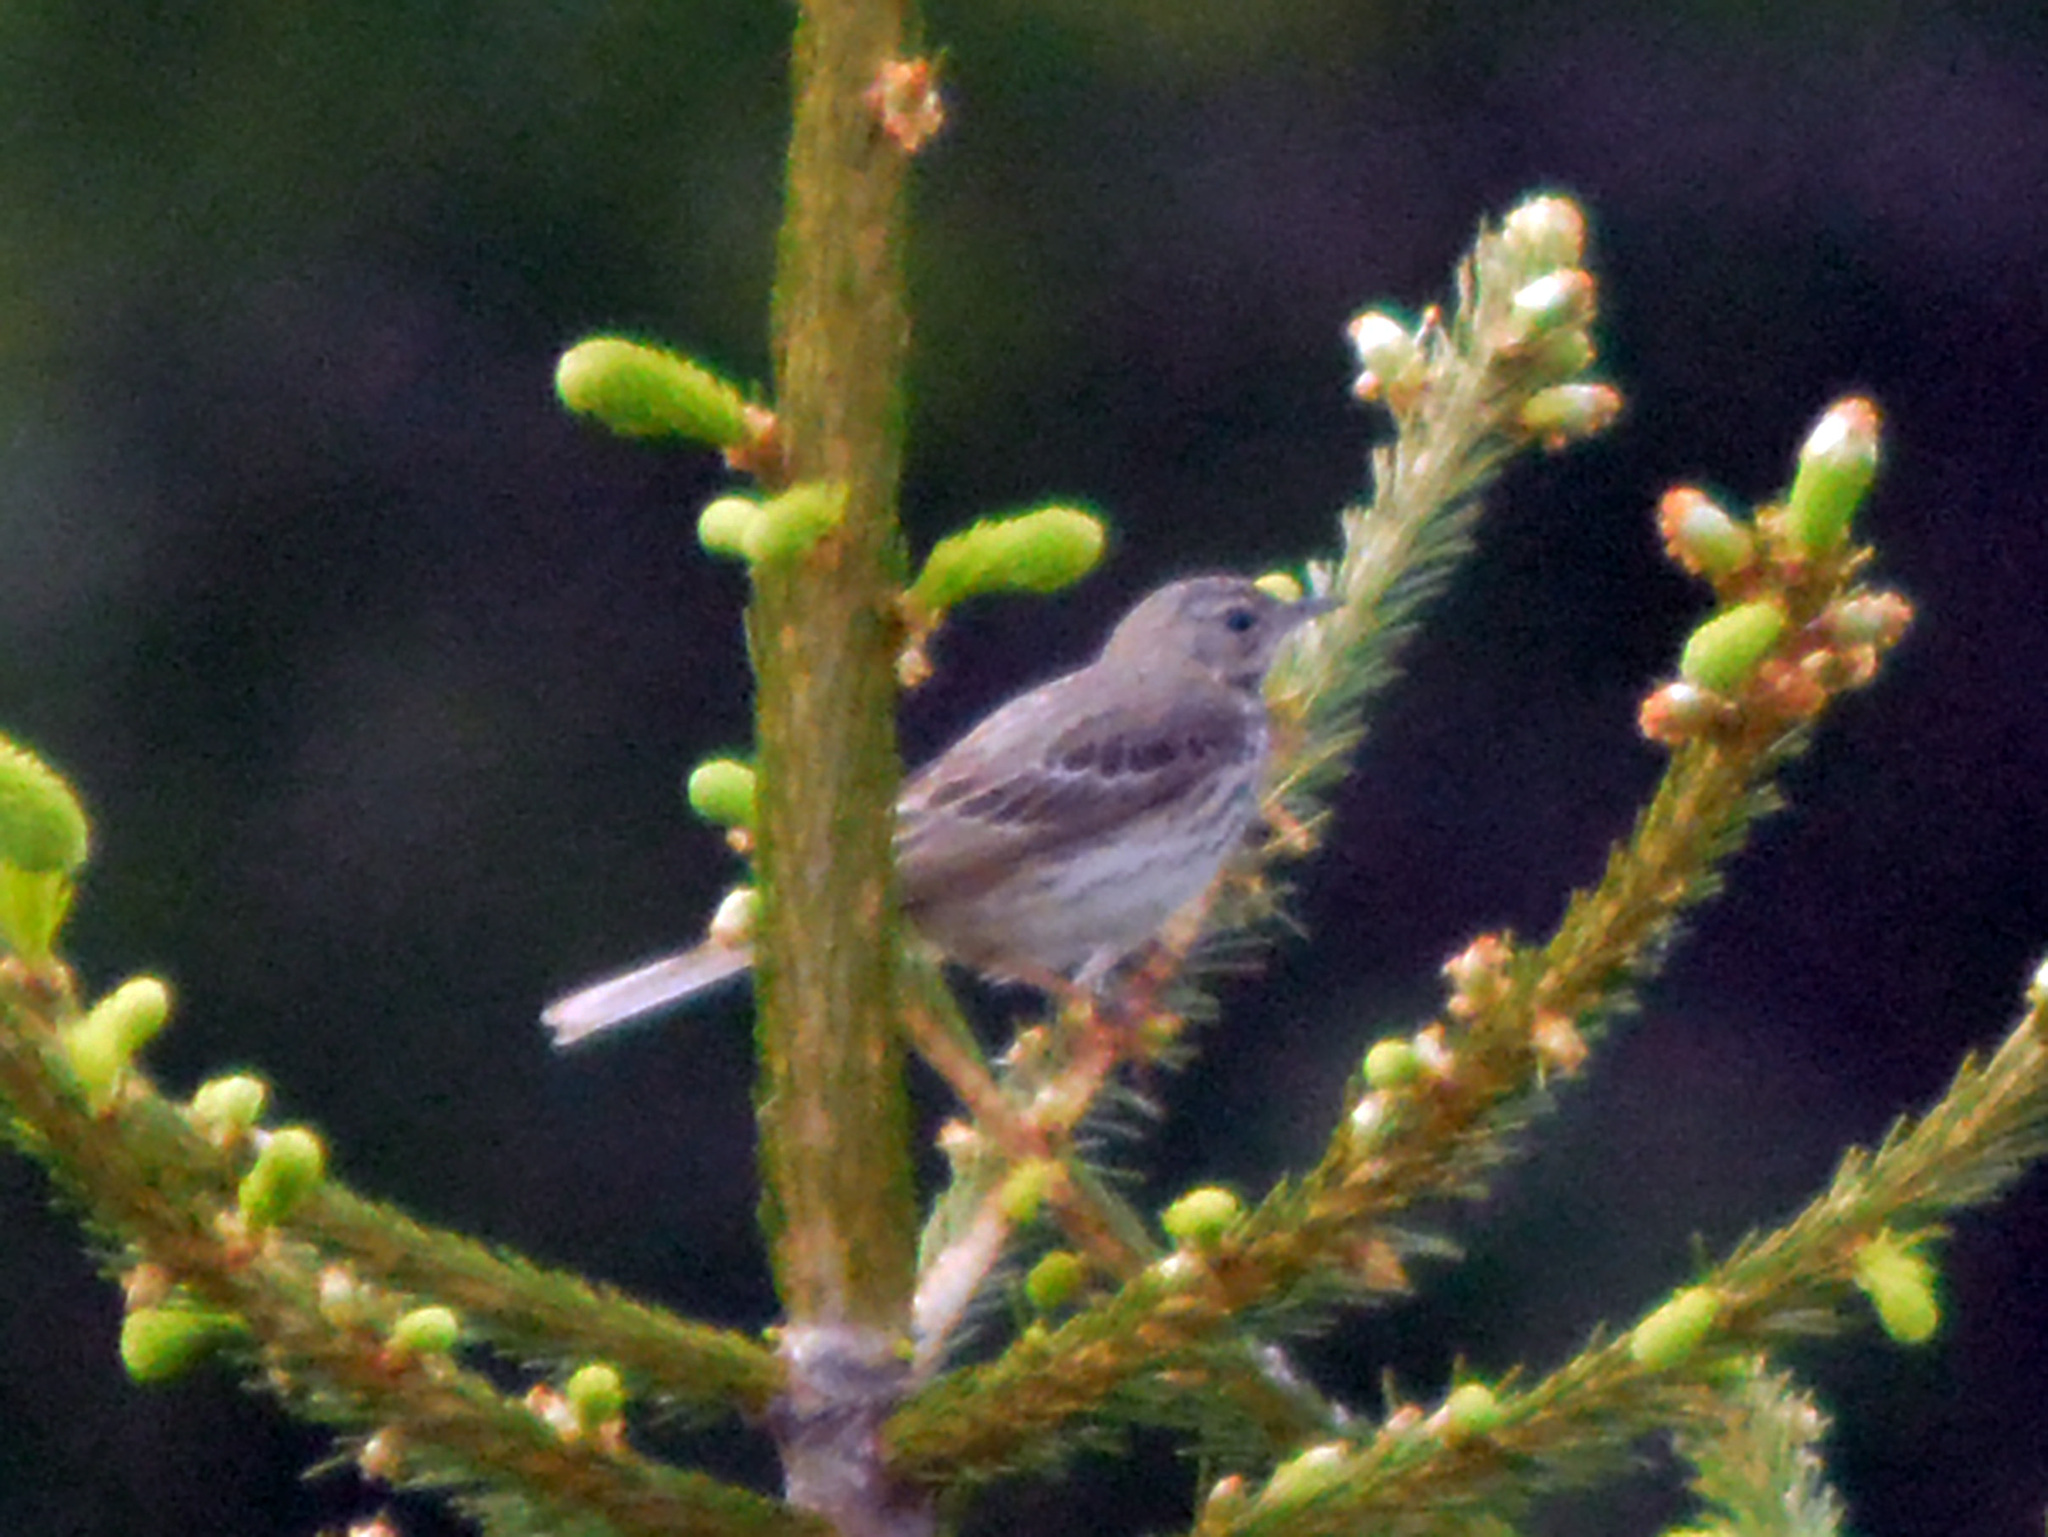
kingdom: Animalia
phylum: Chordata
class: Aves
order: Passeriformes
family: Motacillidae
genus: Anthus
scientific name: Anthus spinoletta
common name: Water pipit
